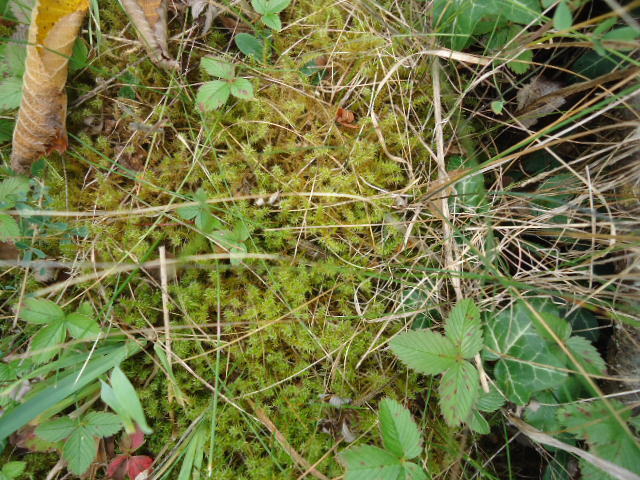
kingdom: Plantae
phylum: Bryophyta
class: Bryopsida
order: Hypnales
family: Hylocomiaceae
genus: Rhytidiadelphus
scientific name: Rhytidiadelphus squarrosus
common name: Springy turf-moss
